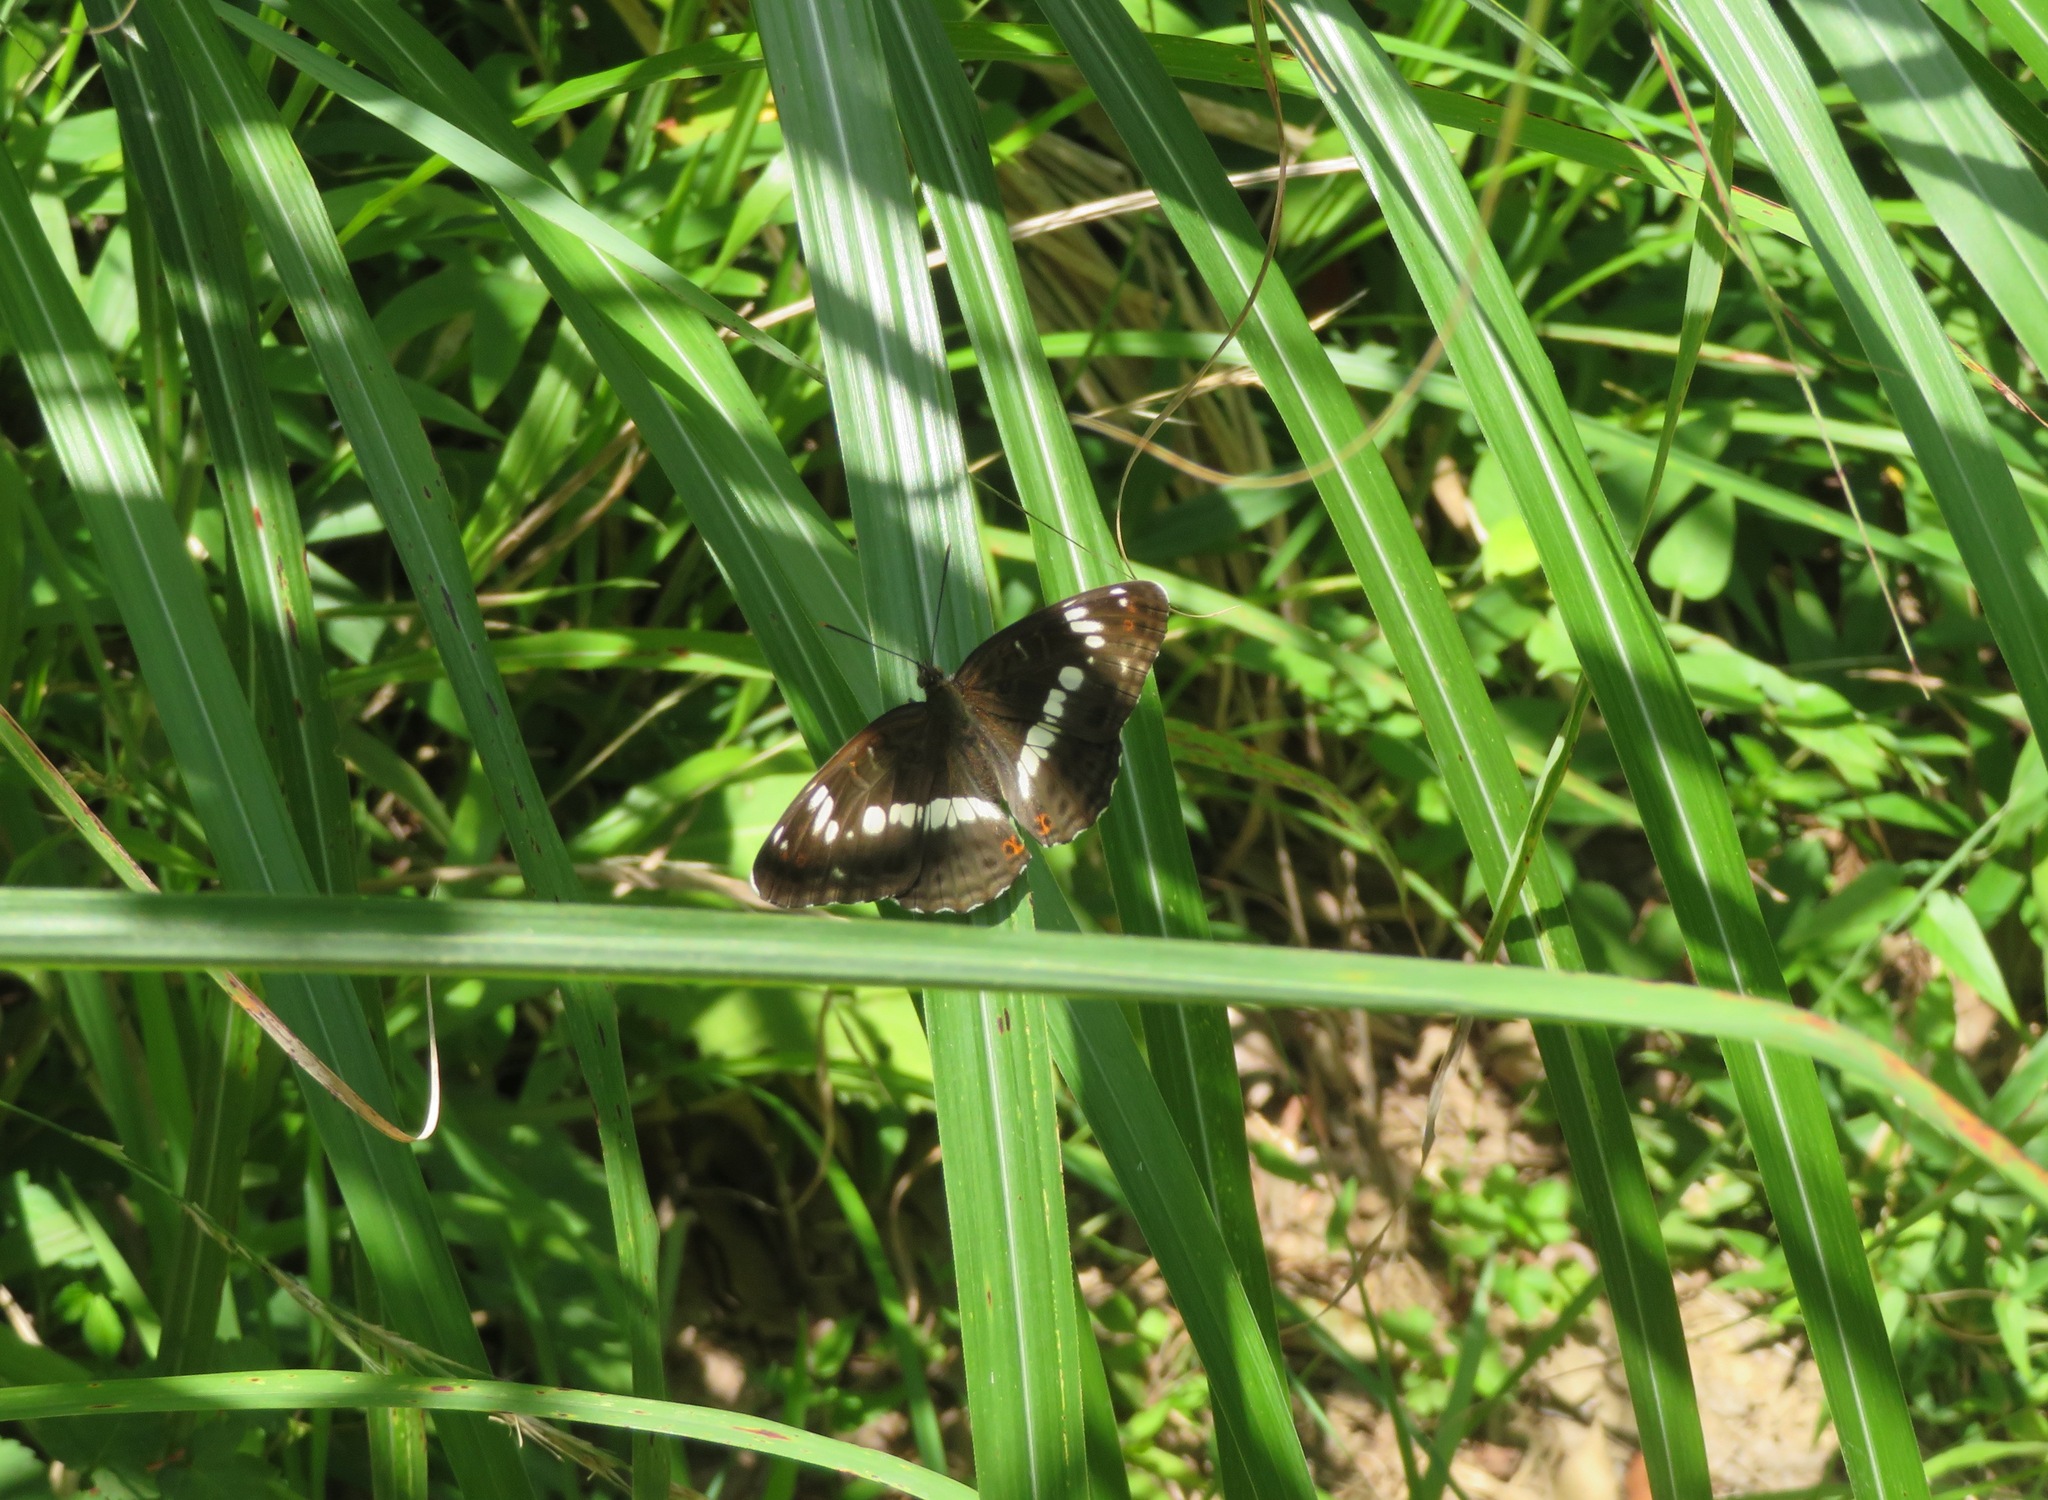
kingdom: Animalia
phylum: Arthropoda
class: Insecta
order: Lepidoptera
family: Nymphalidae
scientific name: Nymphalidae
